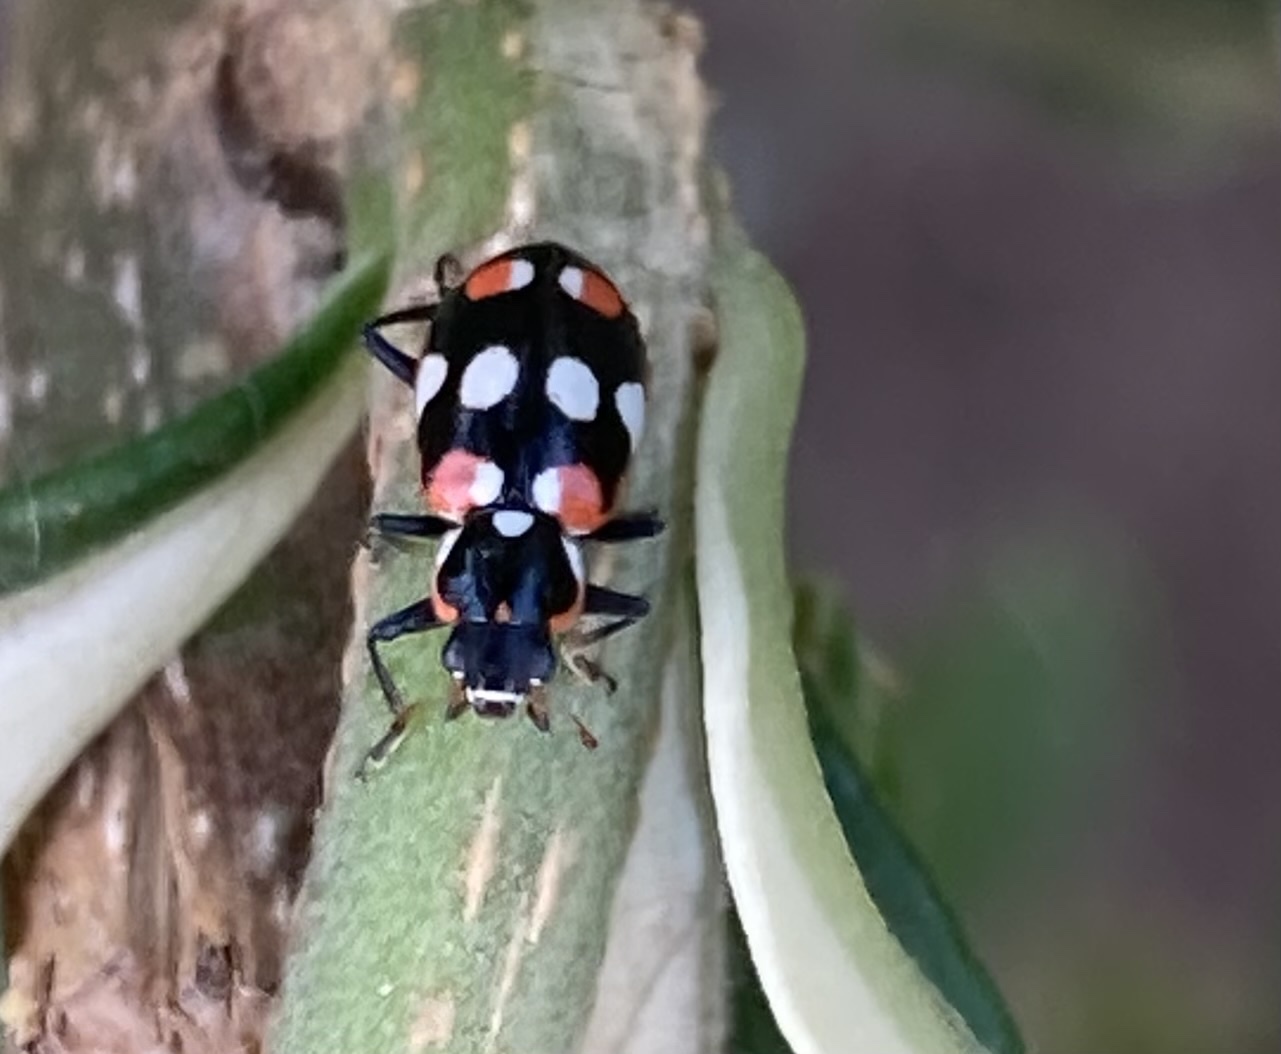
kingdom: Animalia
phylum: Arthropoda
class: Insecta
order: Coleoptera
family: Coccinellidae
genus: Eriopis
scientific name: Eriopis connexa
